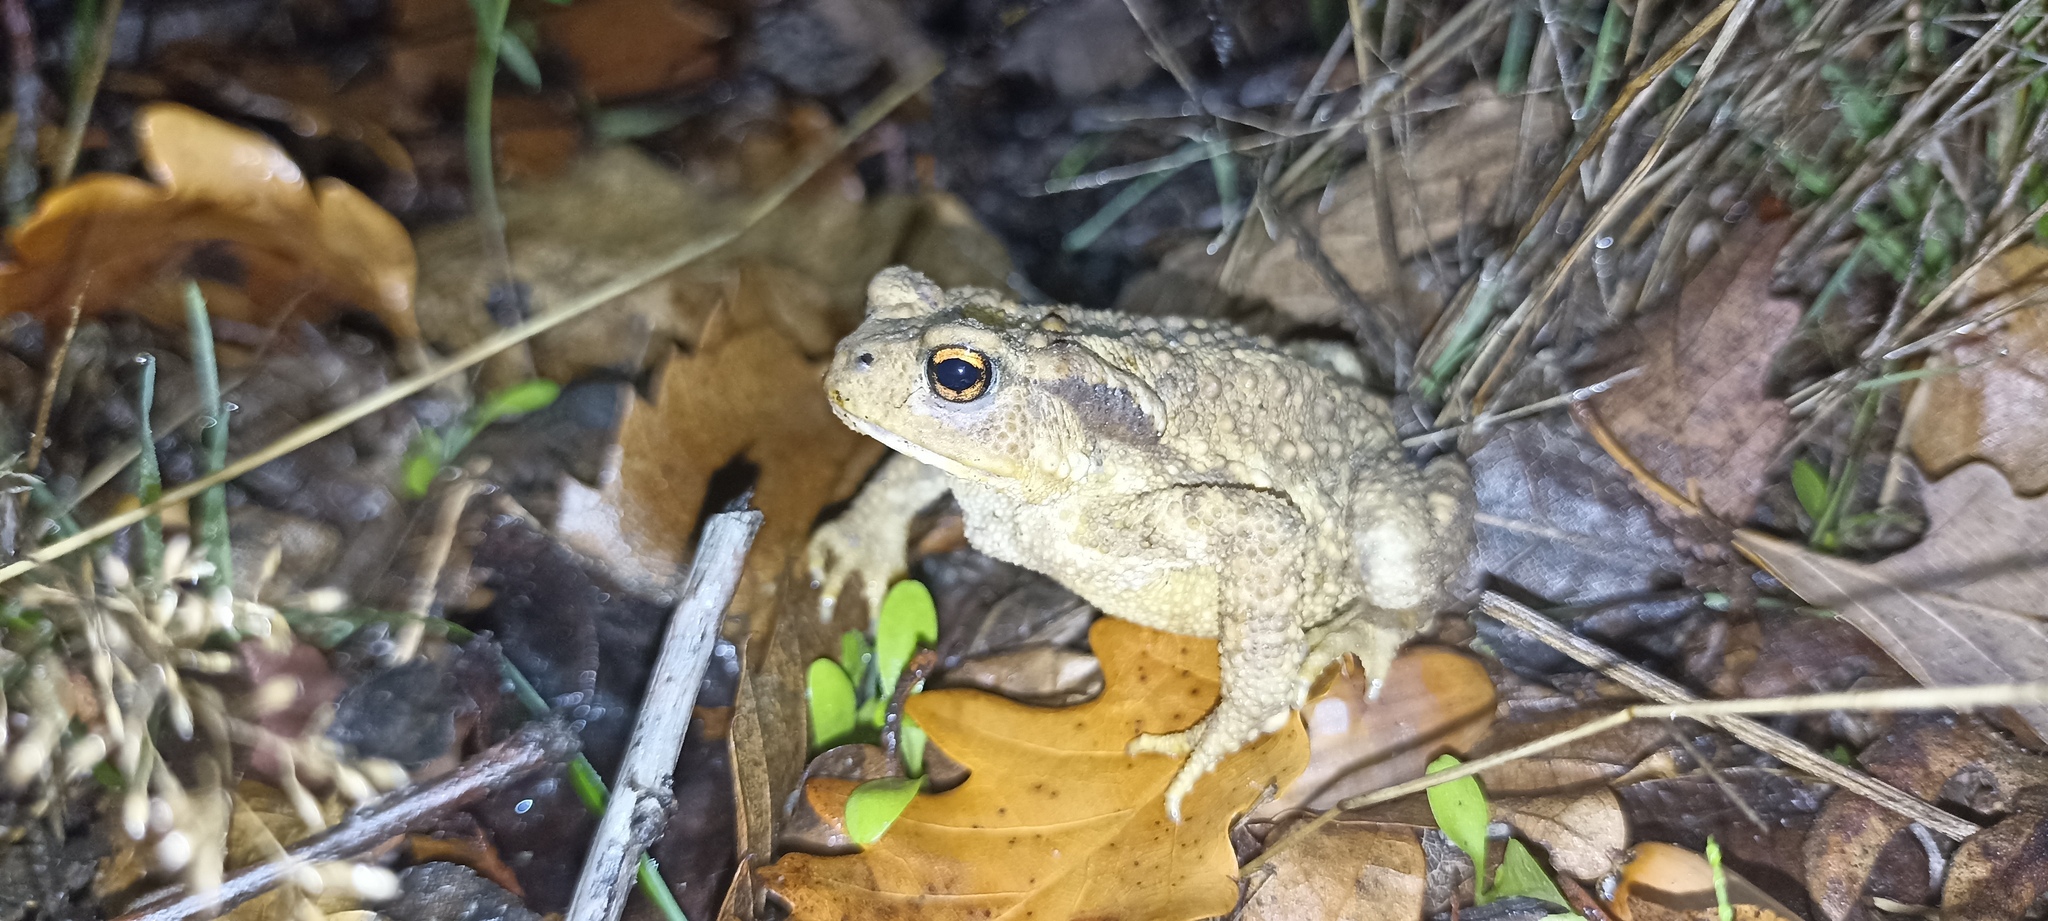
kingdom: Animalia
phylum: Chordata
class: Amphibia
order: Anura
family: Bufonidae
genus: Bufo
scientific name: Bufo spinosus
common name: Western common toad
